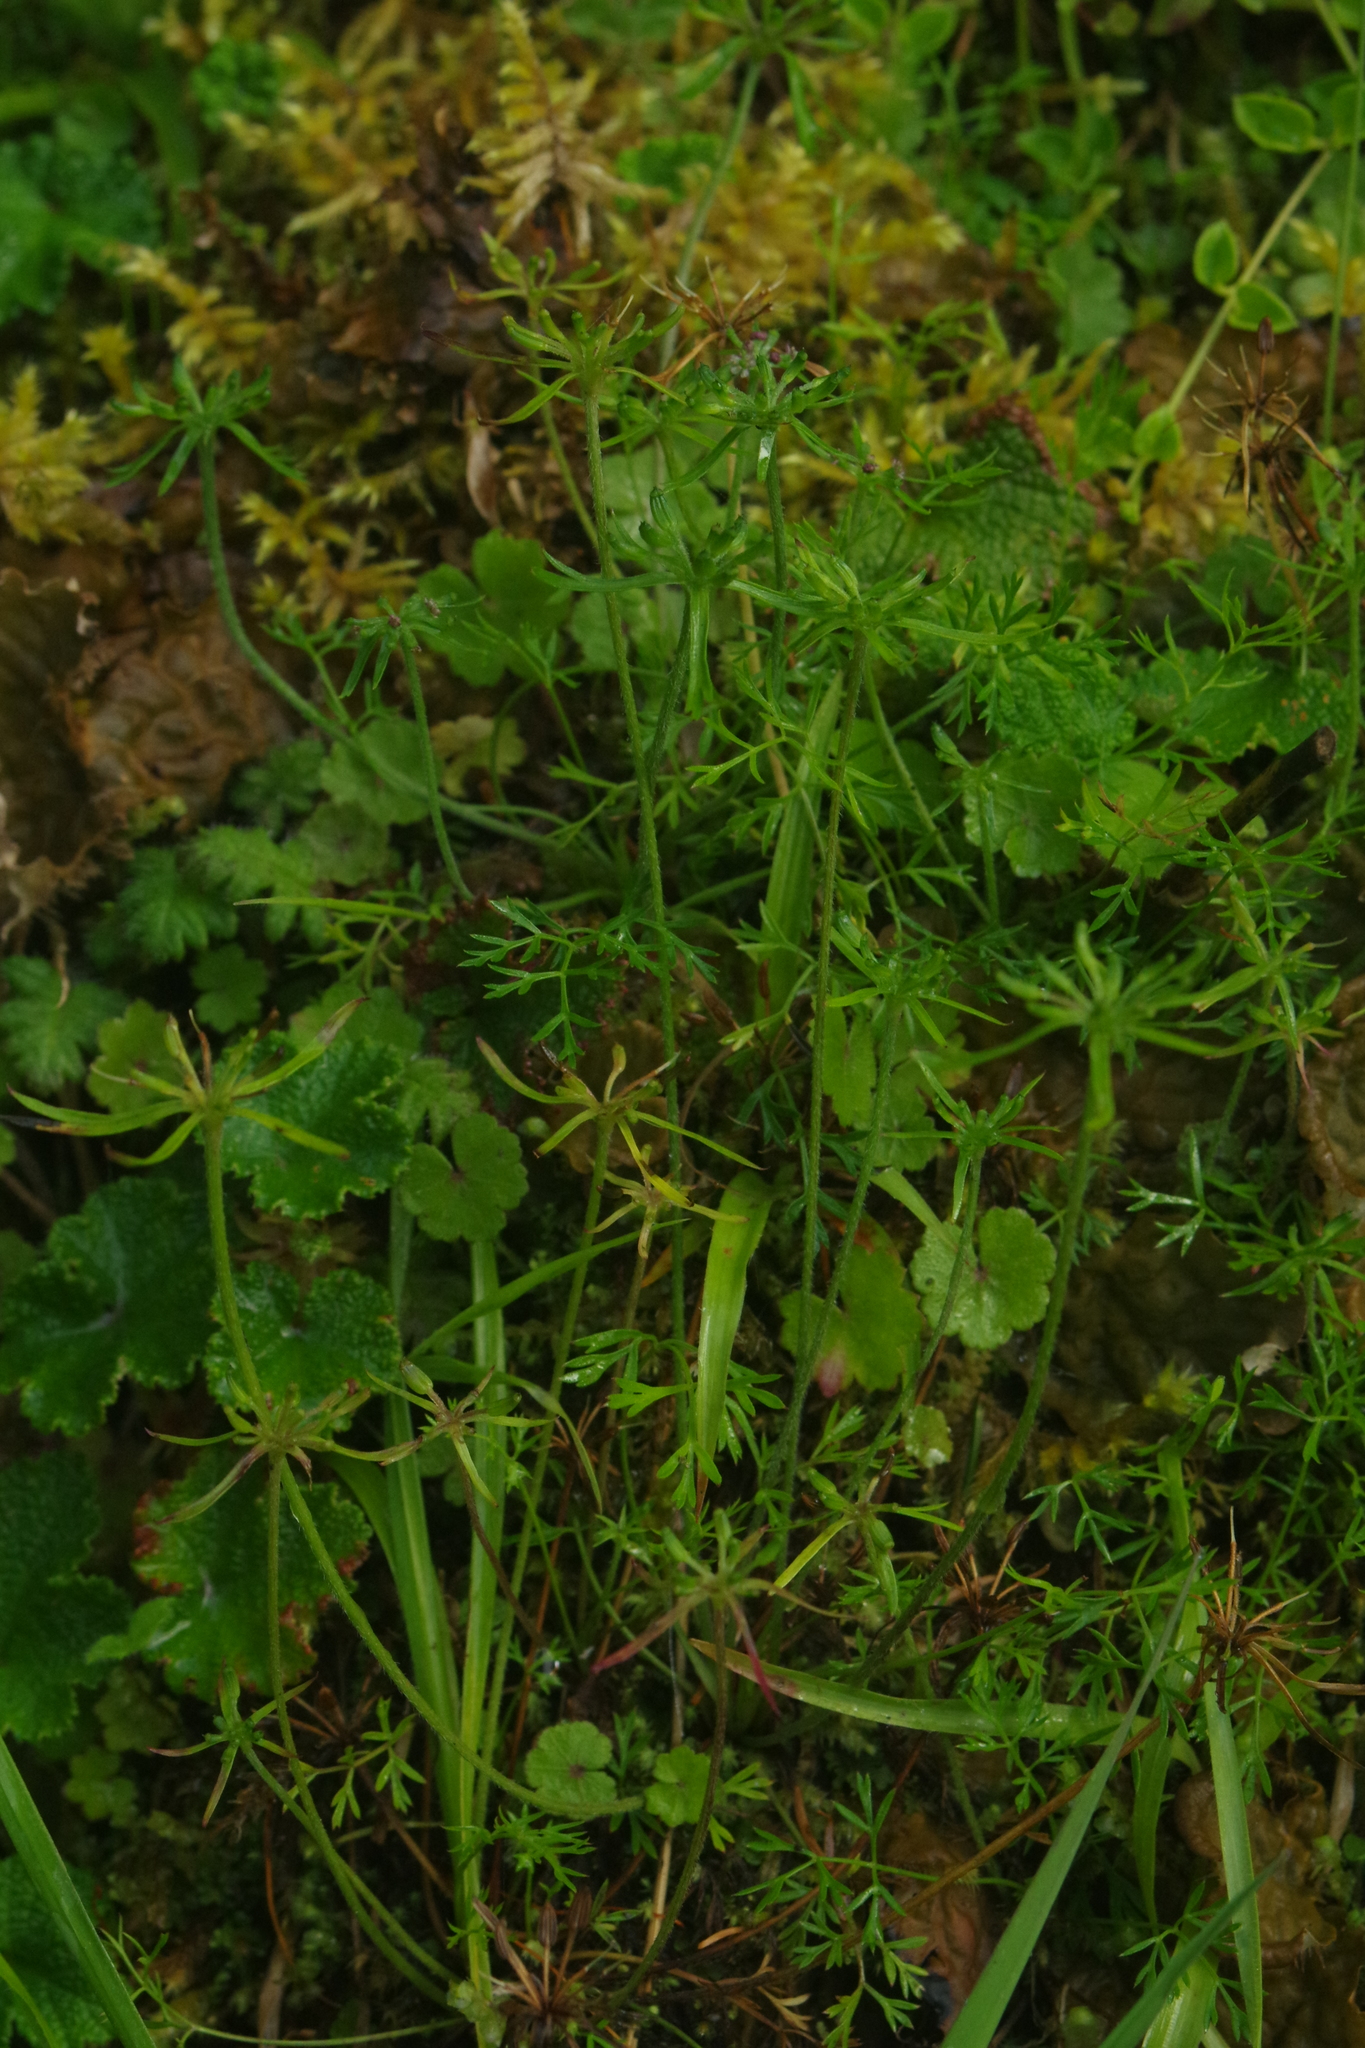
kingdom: Plantae
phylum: Tracheophyta
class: Magnoliopsida
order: Apiales
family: Apiaceae
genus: Chaerophyllum
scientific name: Chaerophyllum involucratum
